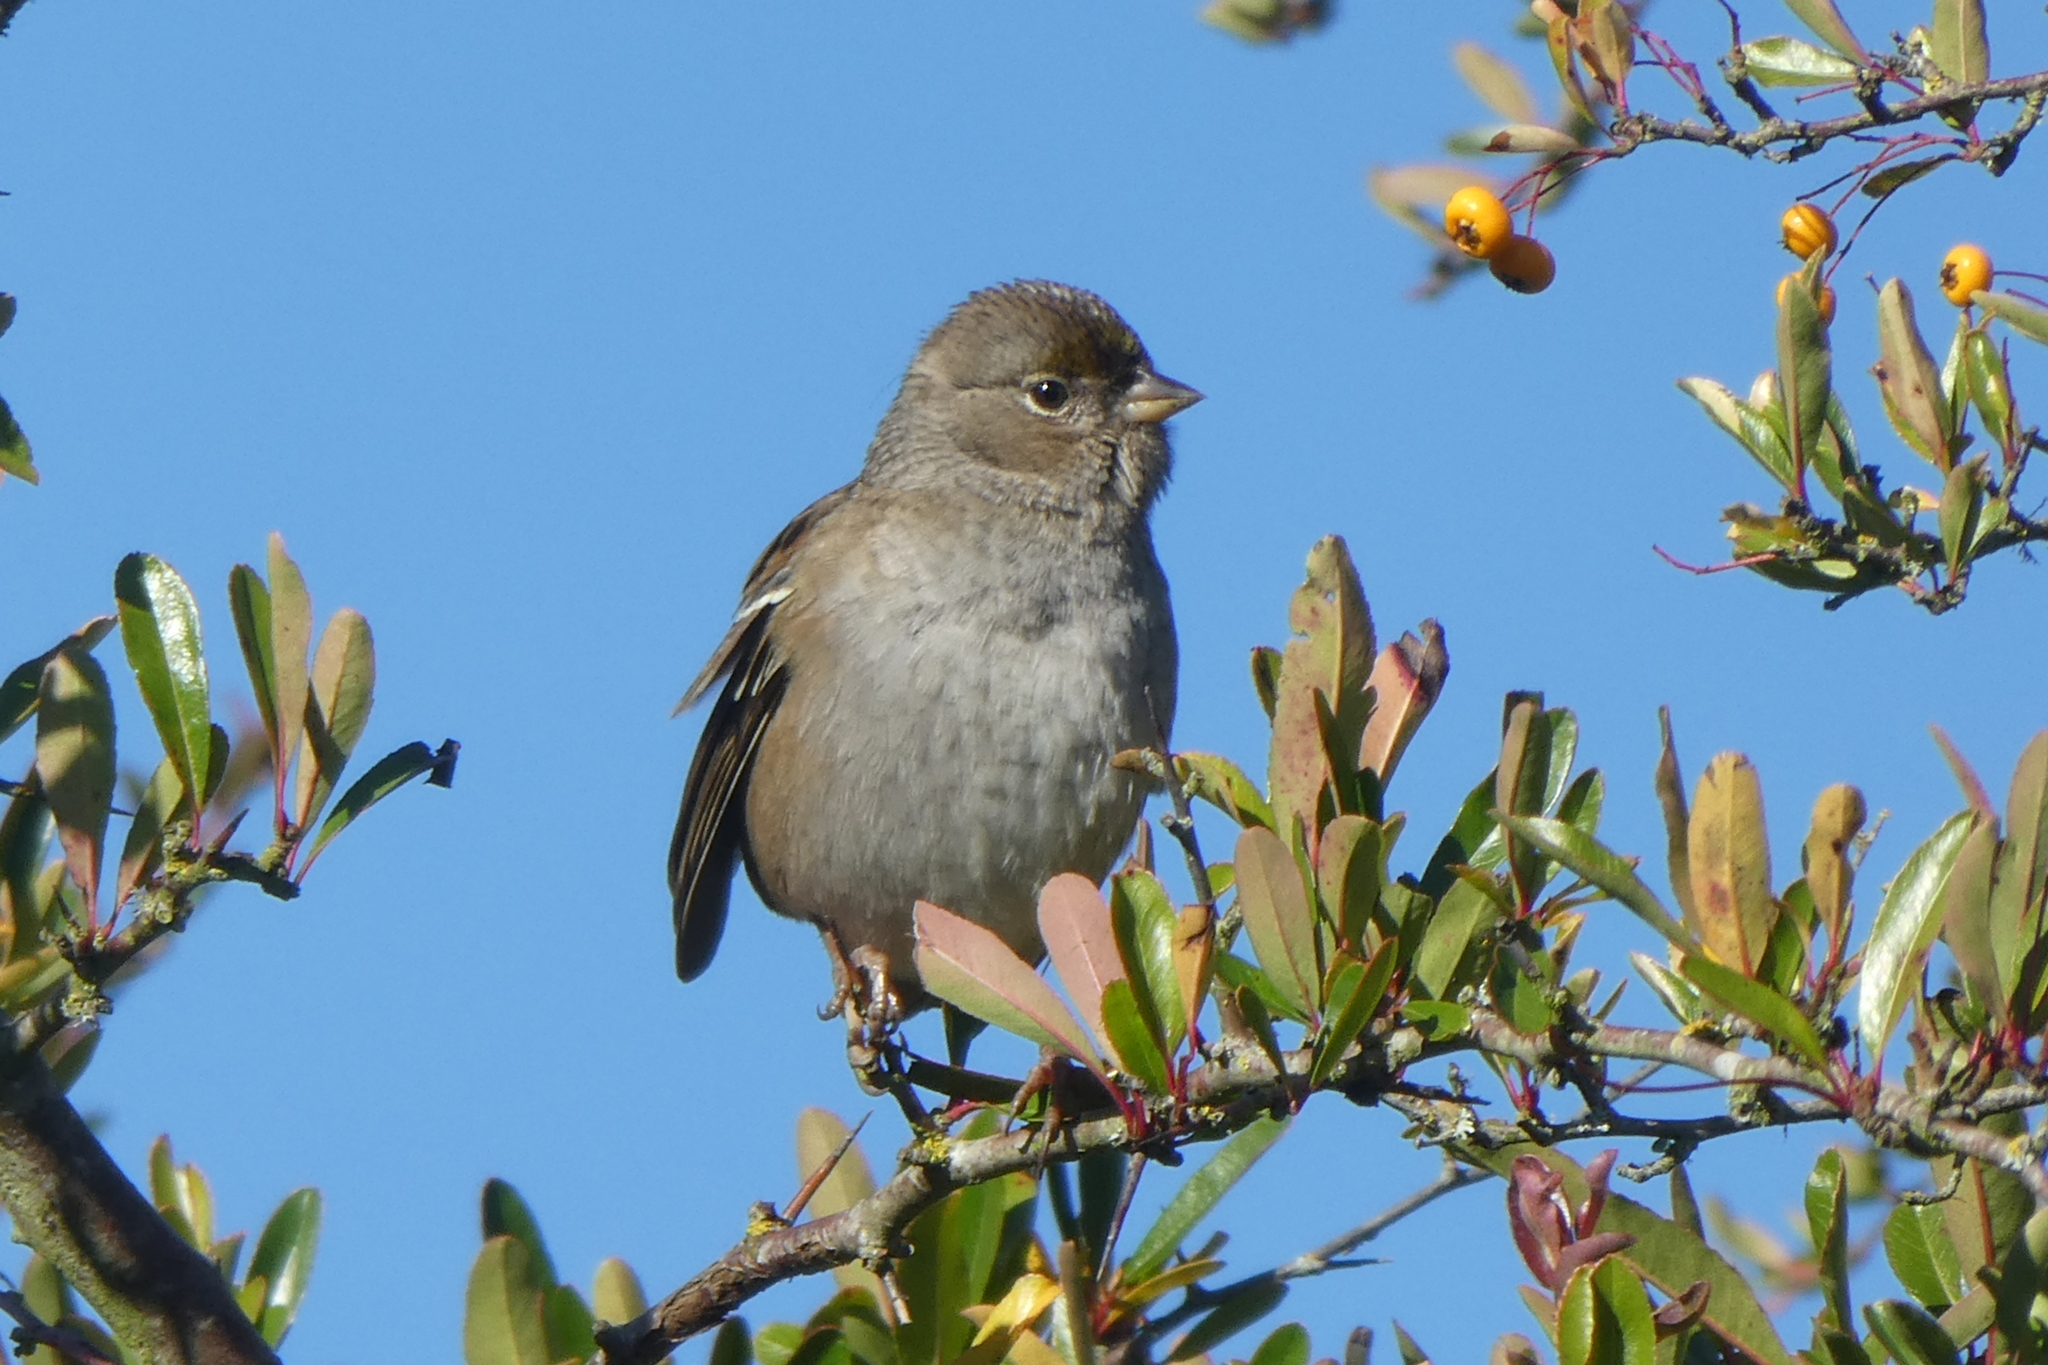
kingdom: Animalia
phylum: Chordata
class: Aves
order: Passeriformes
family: Passerellidae
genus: Zonotrichia
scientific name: Zonotrichia atricapilla
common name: Golden-crowned sparrow
